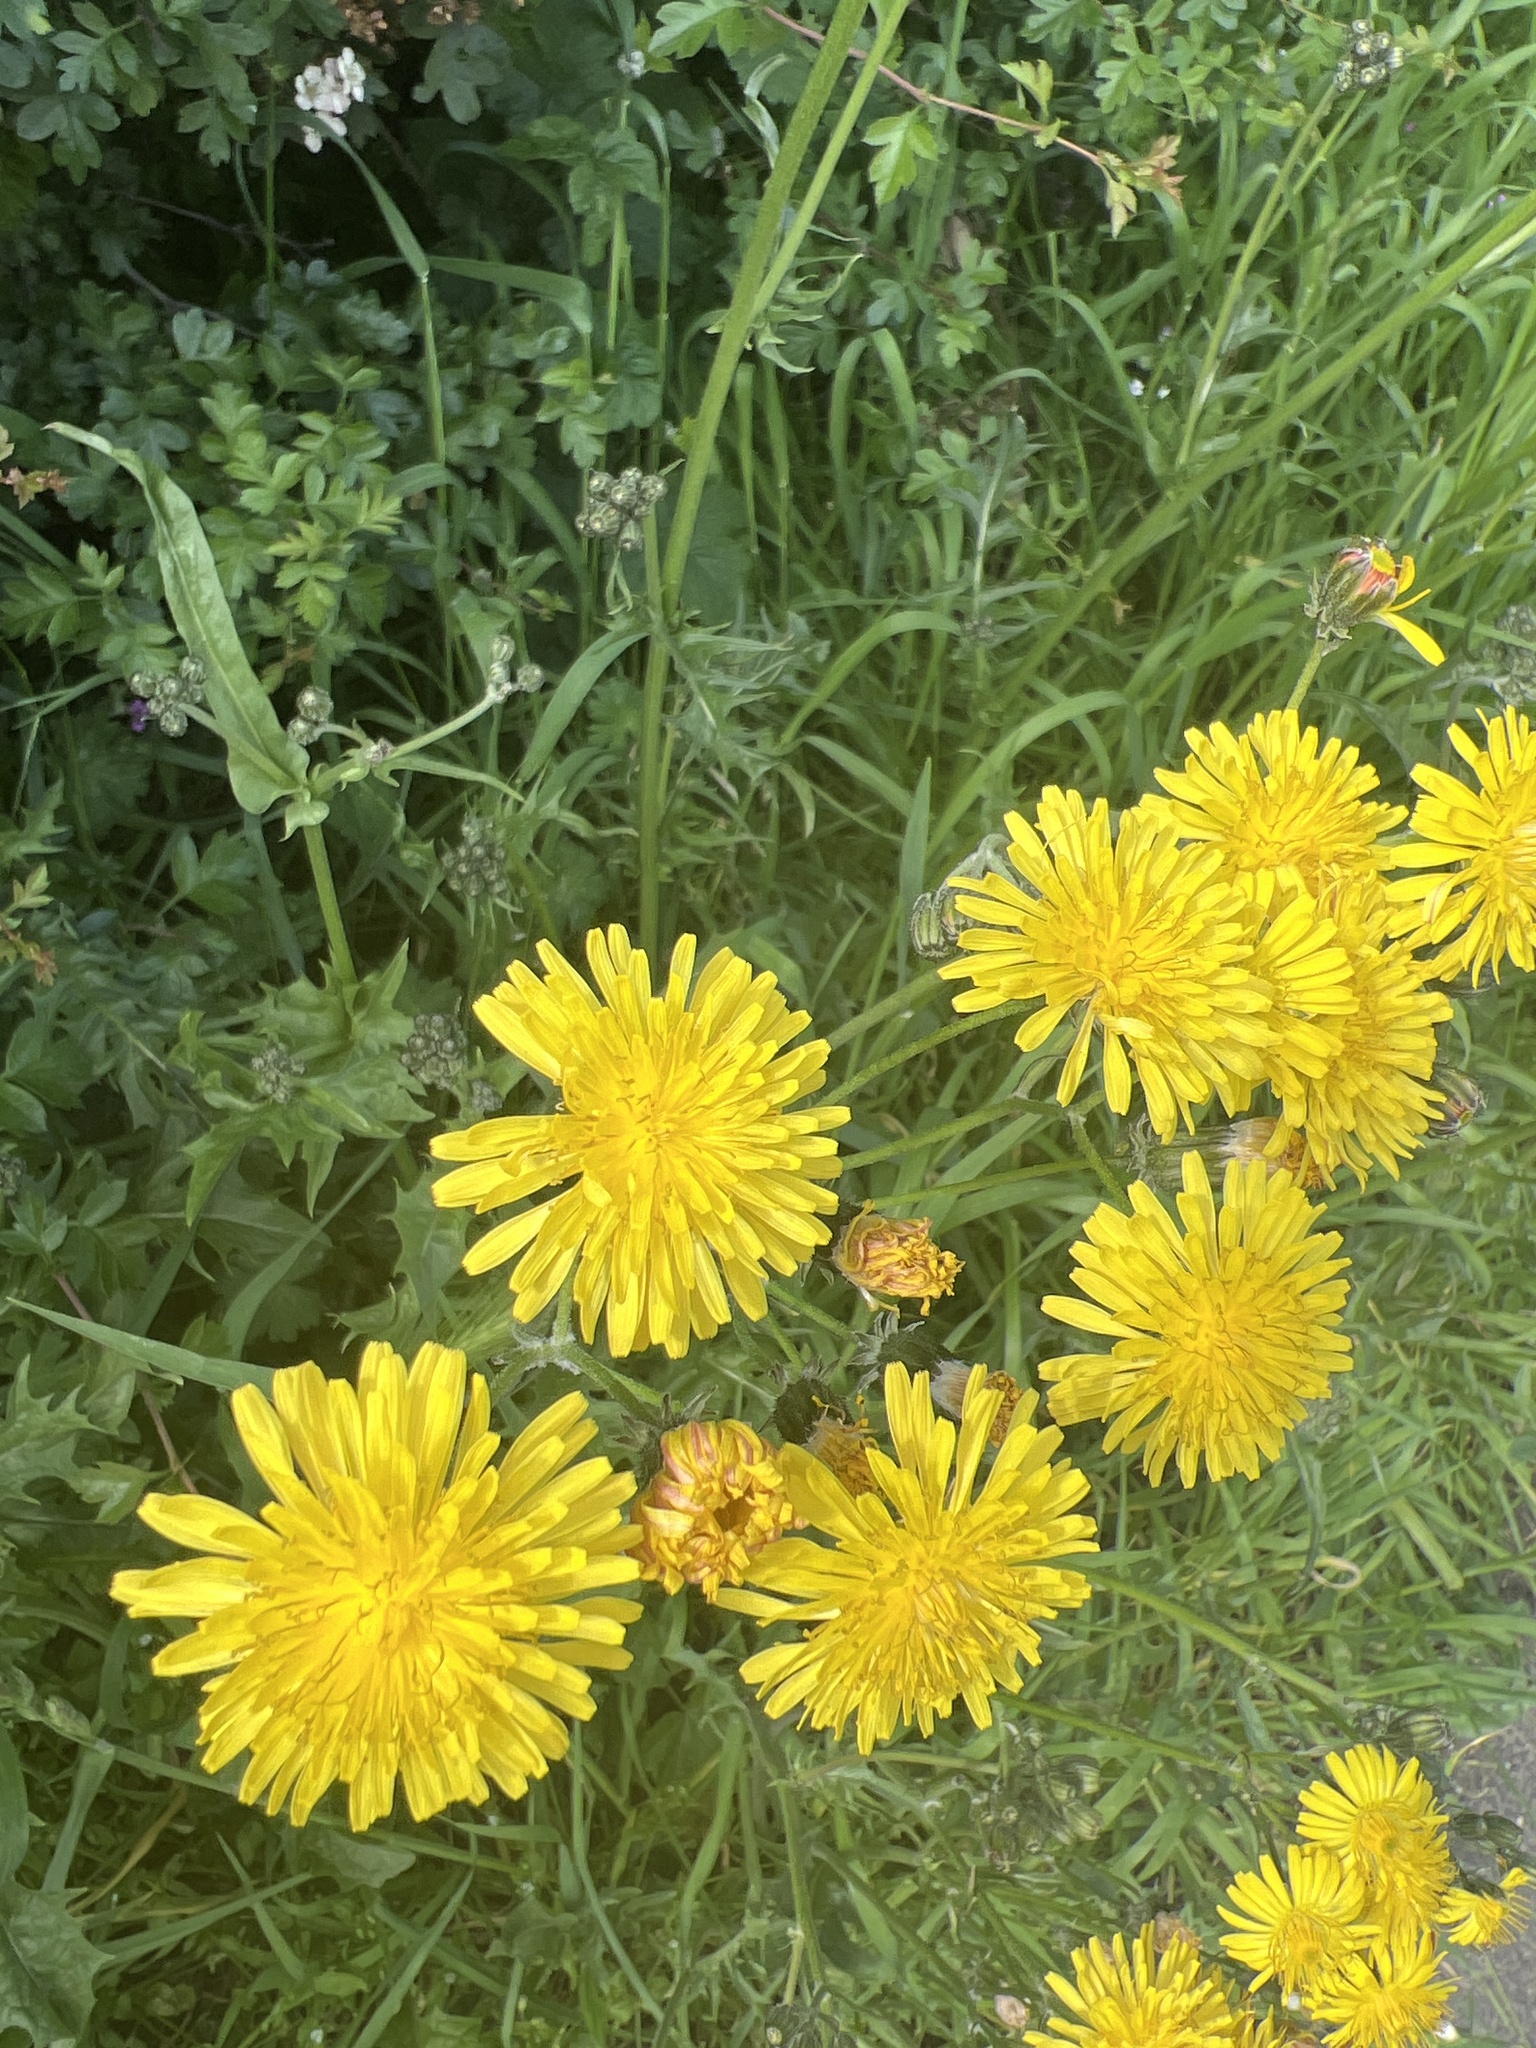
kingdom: Plantae
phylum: Tracheophyta
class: Magnoliopsida
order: Asterales
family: Asteraceae
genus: Crepis
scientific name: Crepis biennis
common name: Rough hawk's-beard
